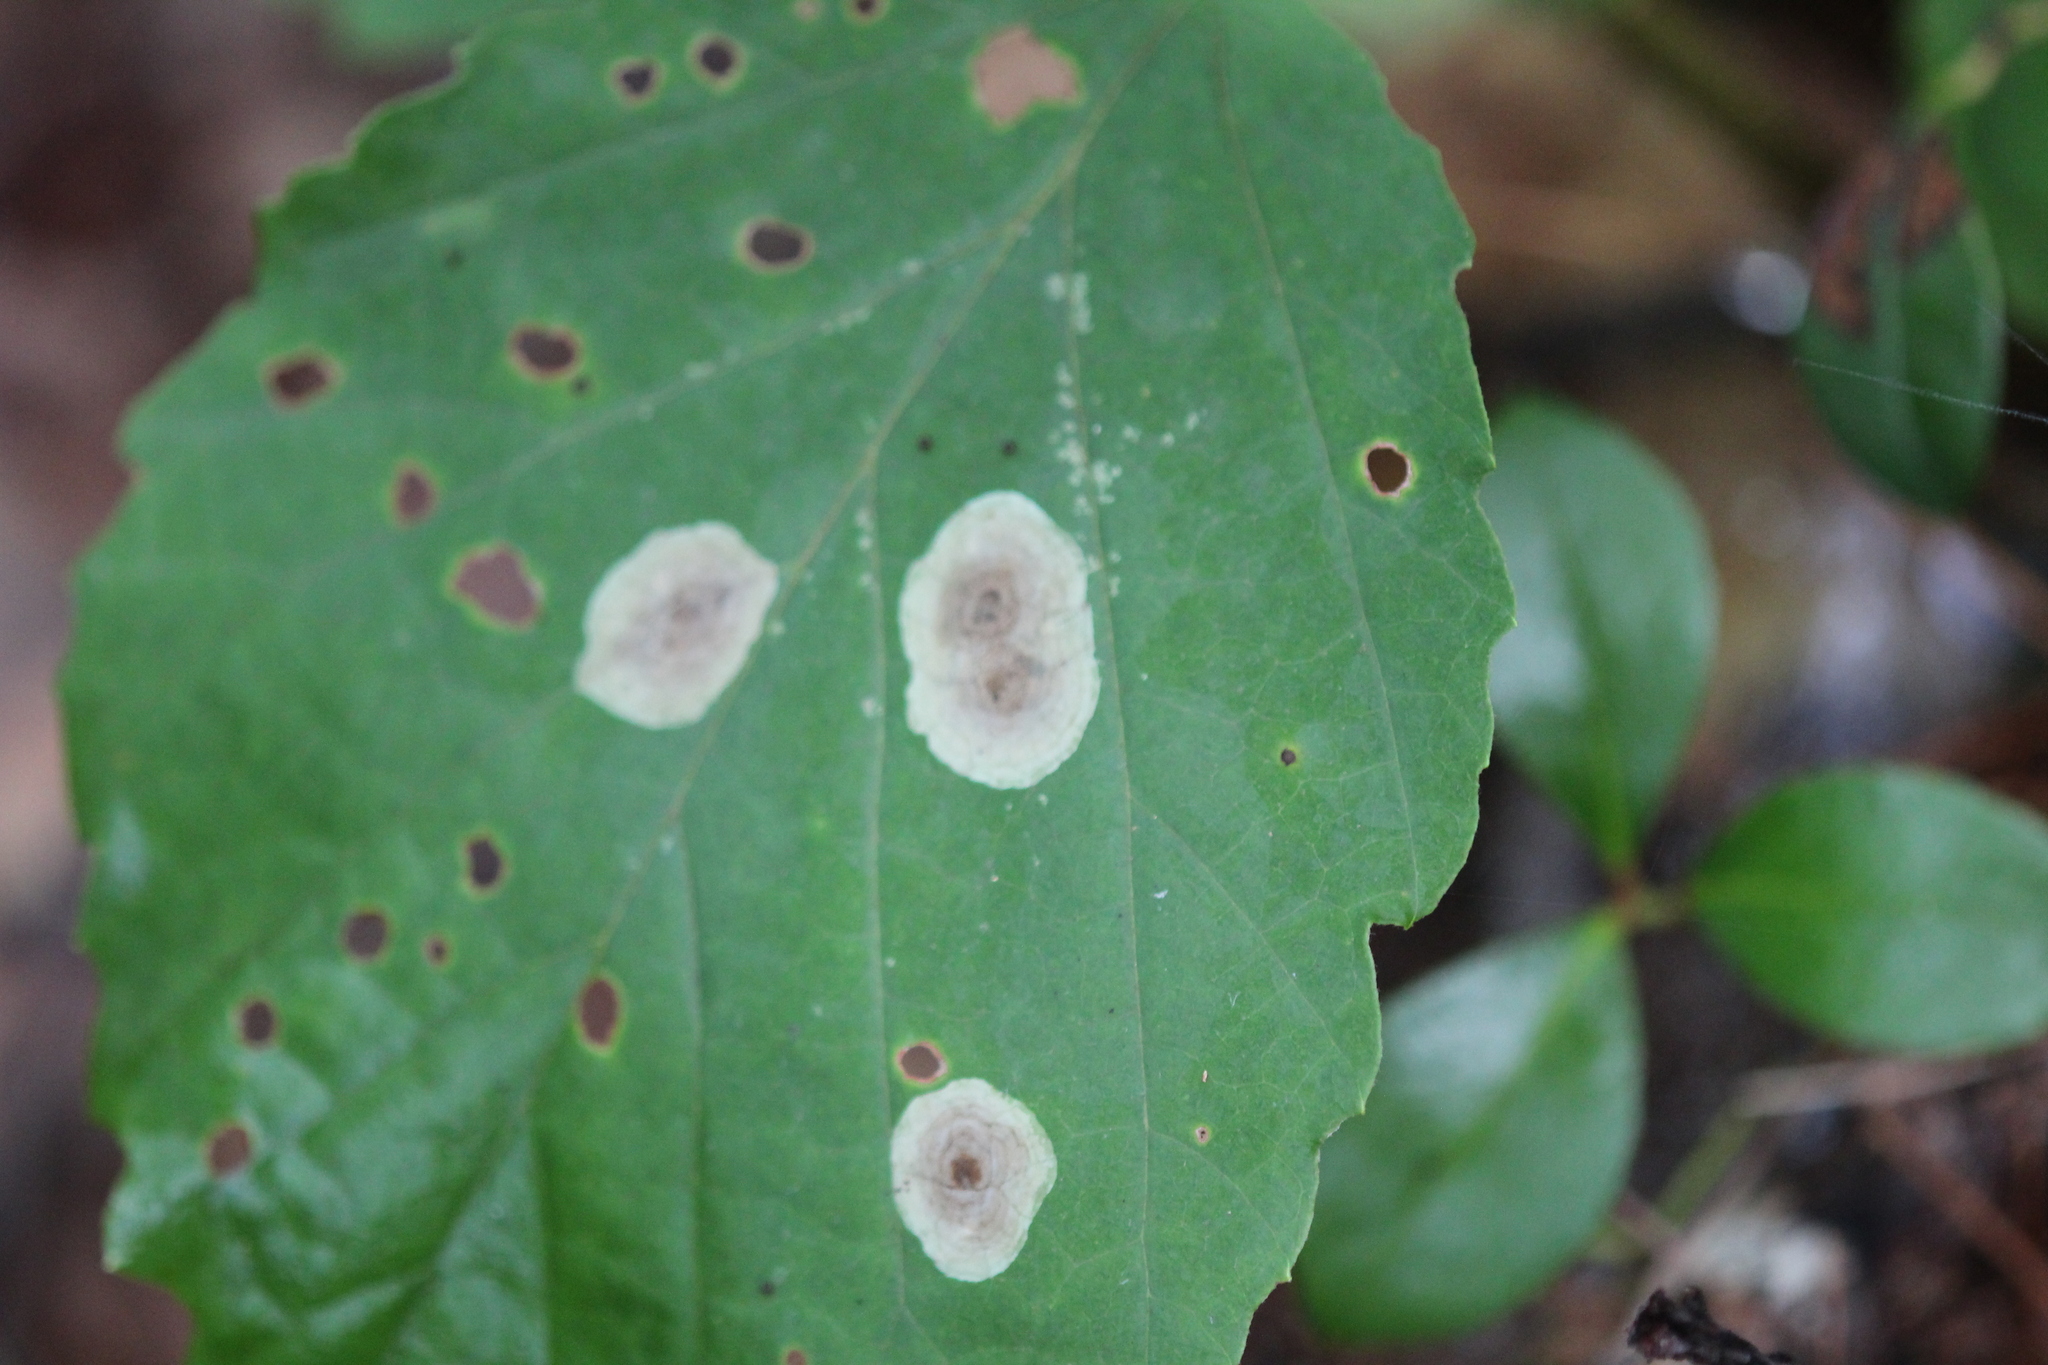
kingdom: Plantae
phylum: Tracheophyta
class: Magnoliopsida
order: Saxifragales
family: Hamamelidaceae
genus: Hamamelis
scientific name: Hamamelis virginiana
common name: Witch-hazel
